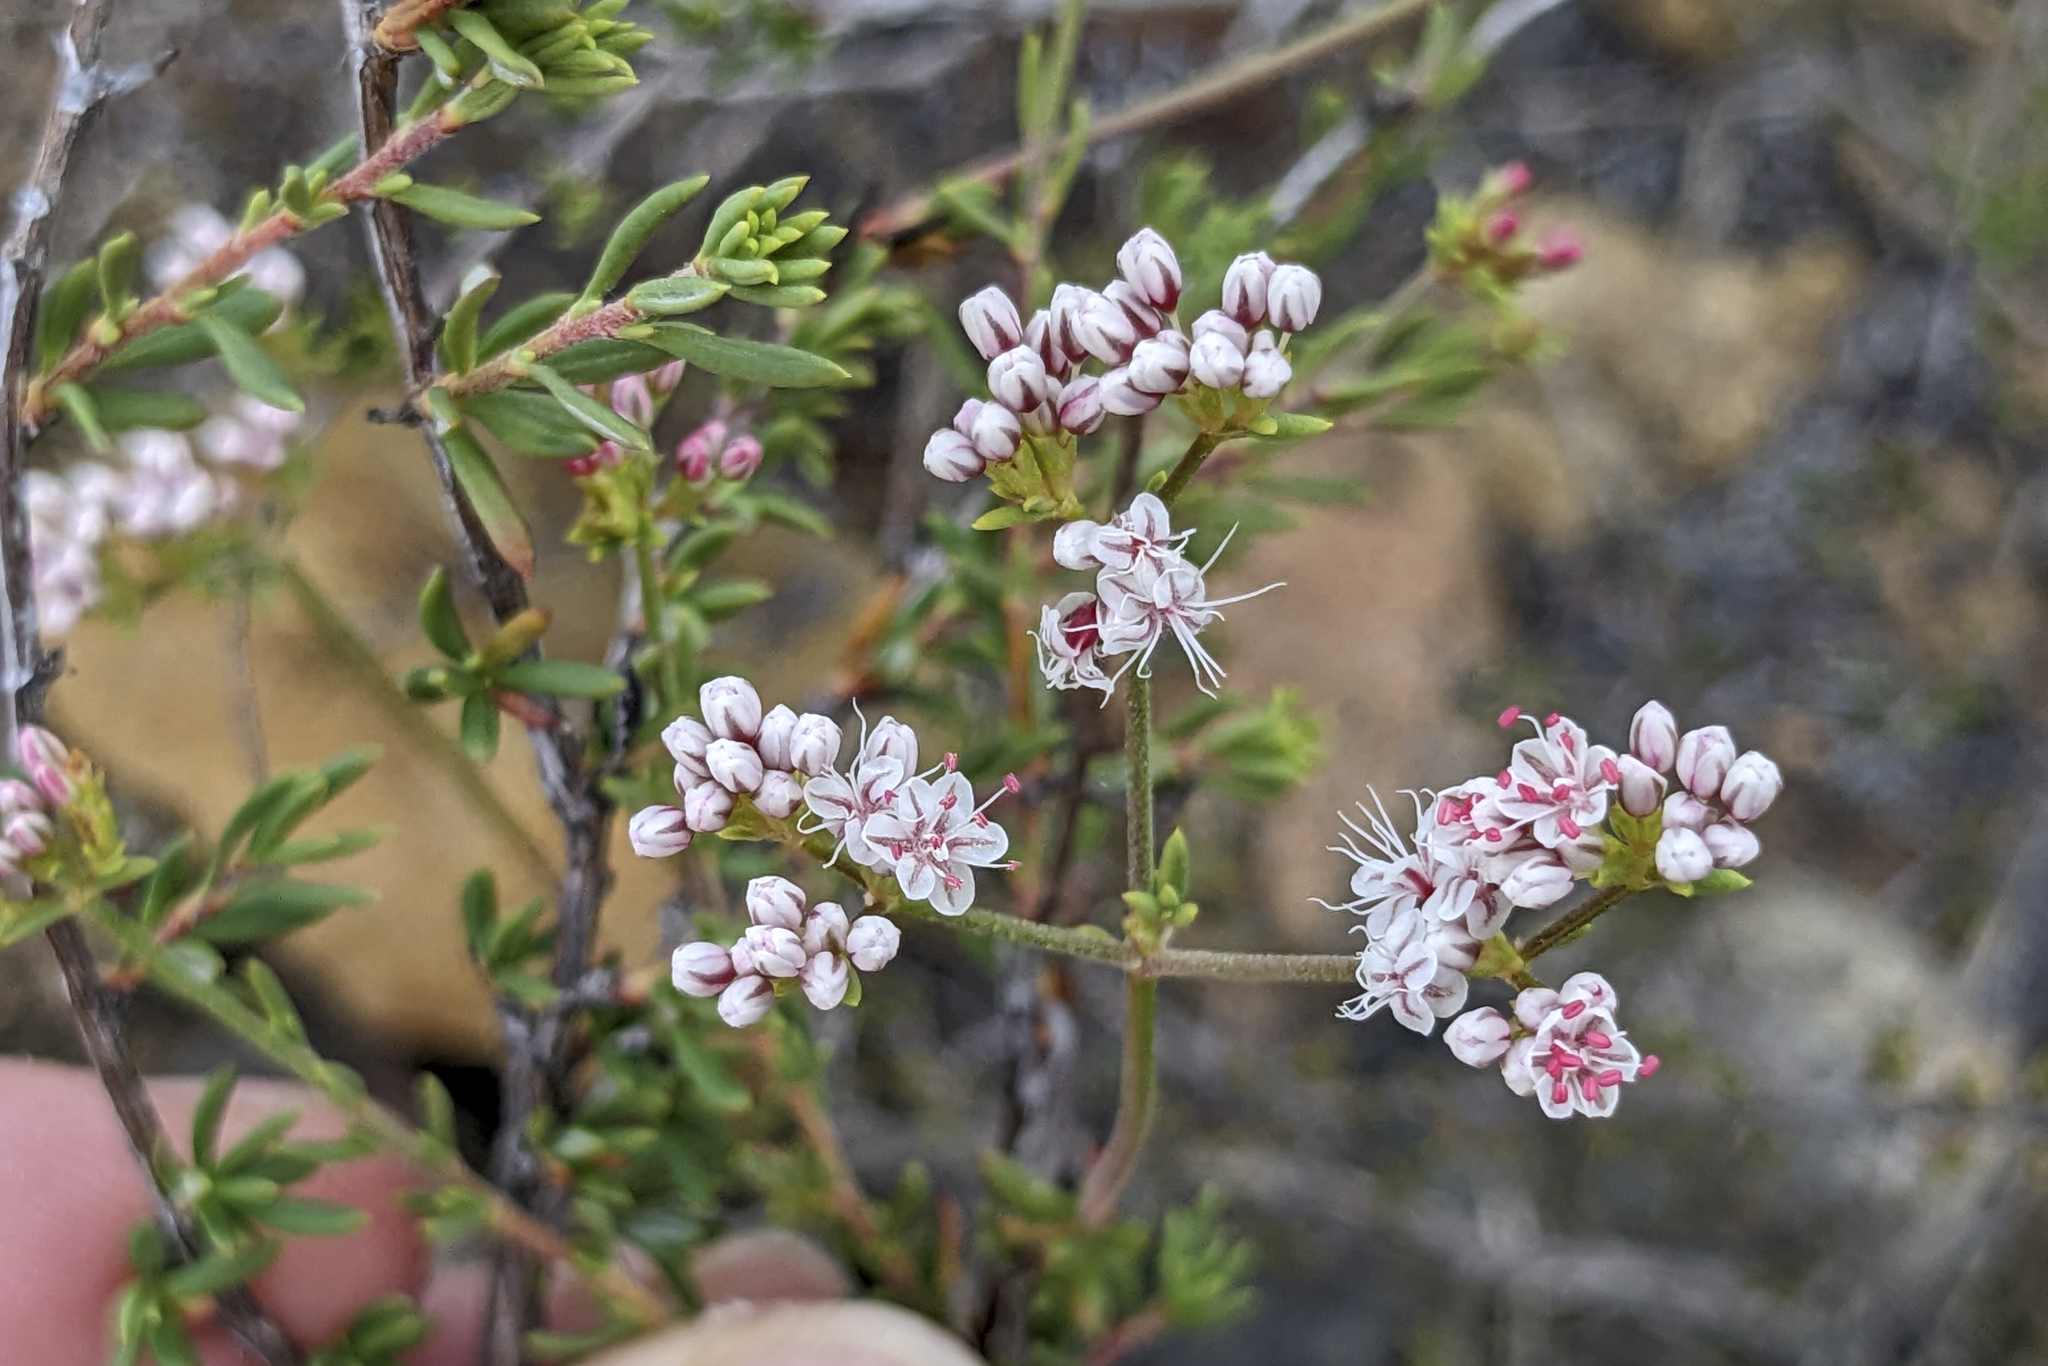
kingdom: Plantae
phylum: Tracheophyta
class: Magnoliopsida
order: Caryophyllales
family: Polygonaceae
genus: Eriogonum
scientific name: Eriogonum fasciculatum
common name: California wild buckwheat
